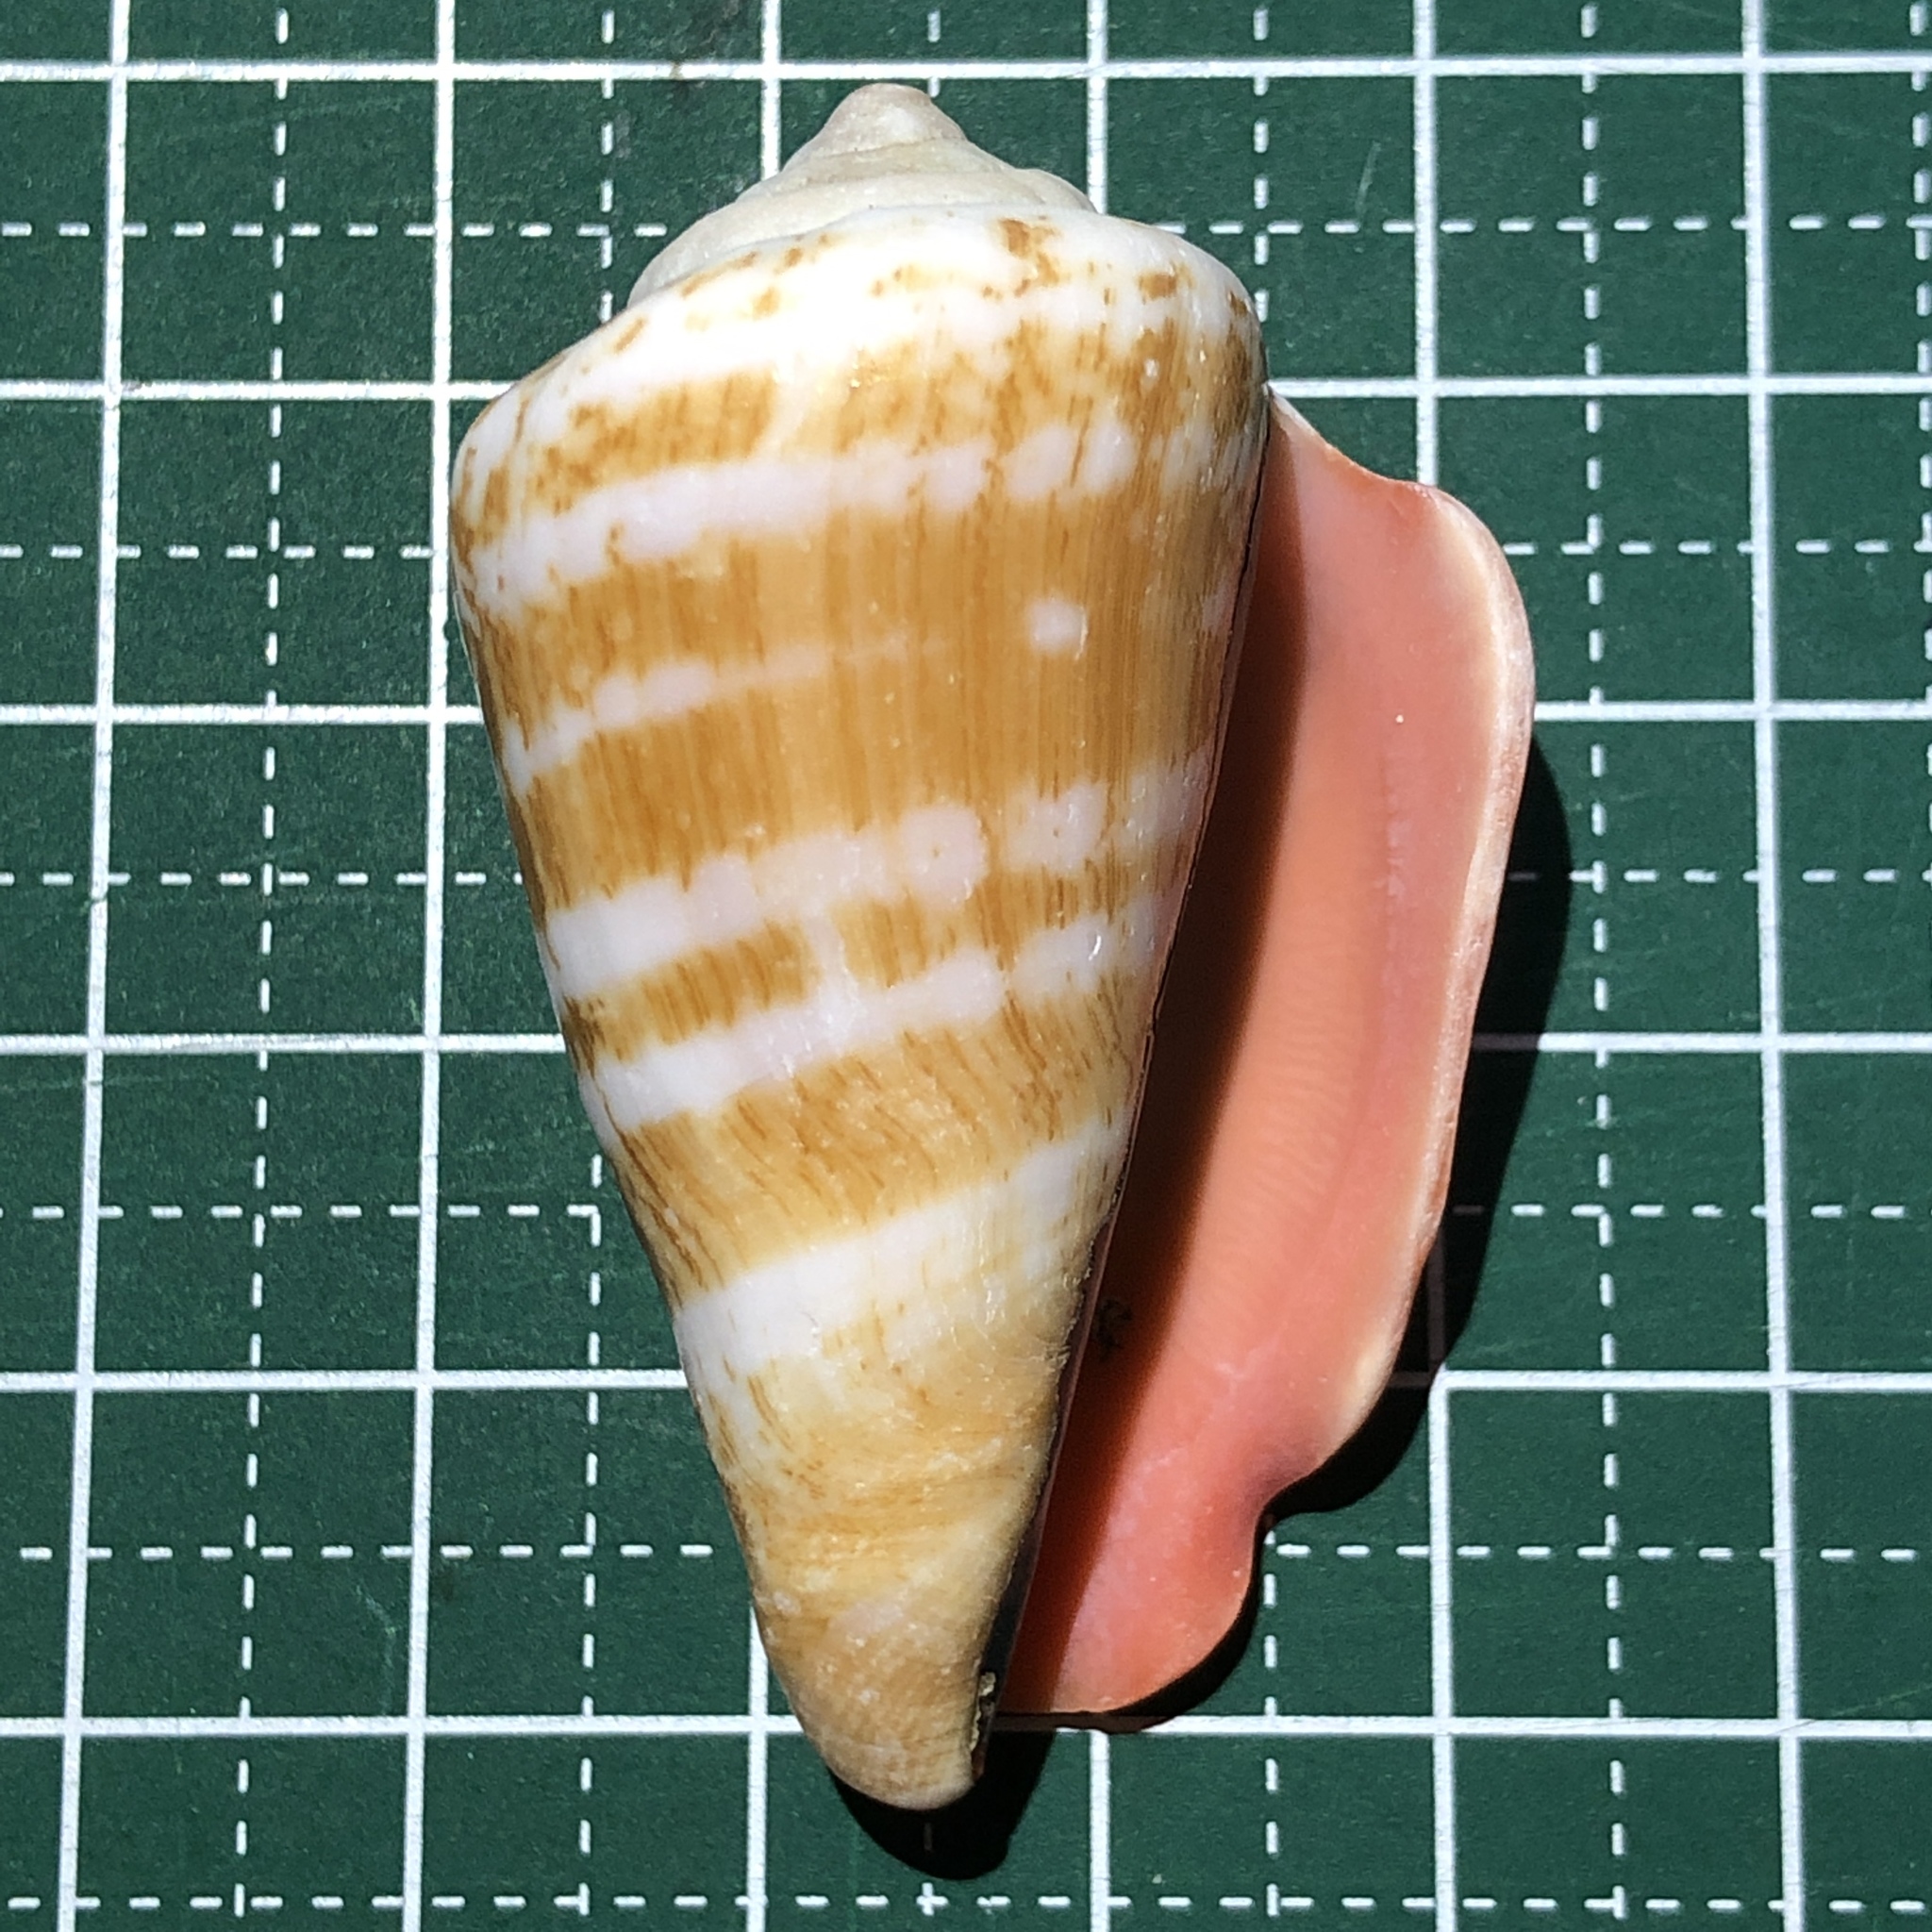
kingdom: Animalia
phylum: Mollusca
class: Gastropoda
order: Littorinimorpha
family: Strombidae
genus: Conomurex
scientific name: Conomurex luhuanus
